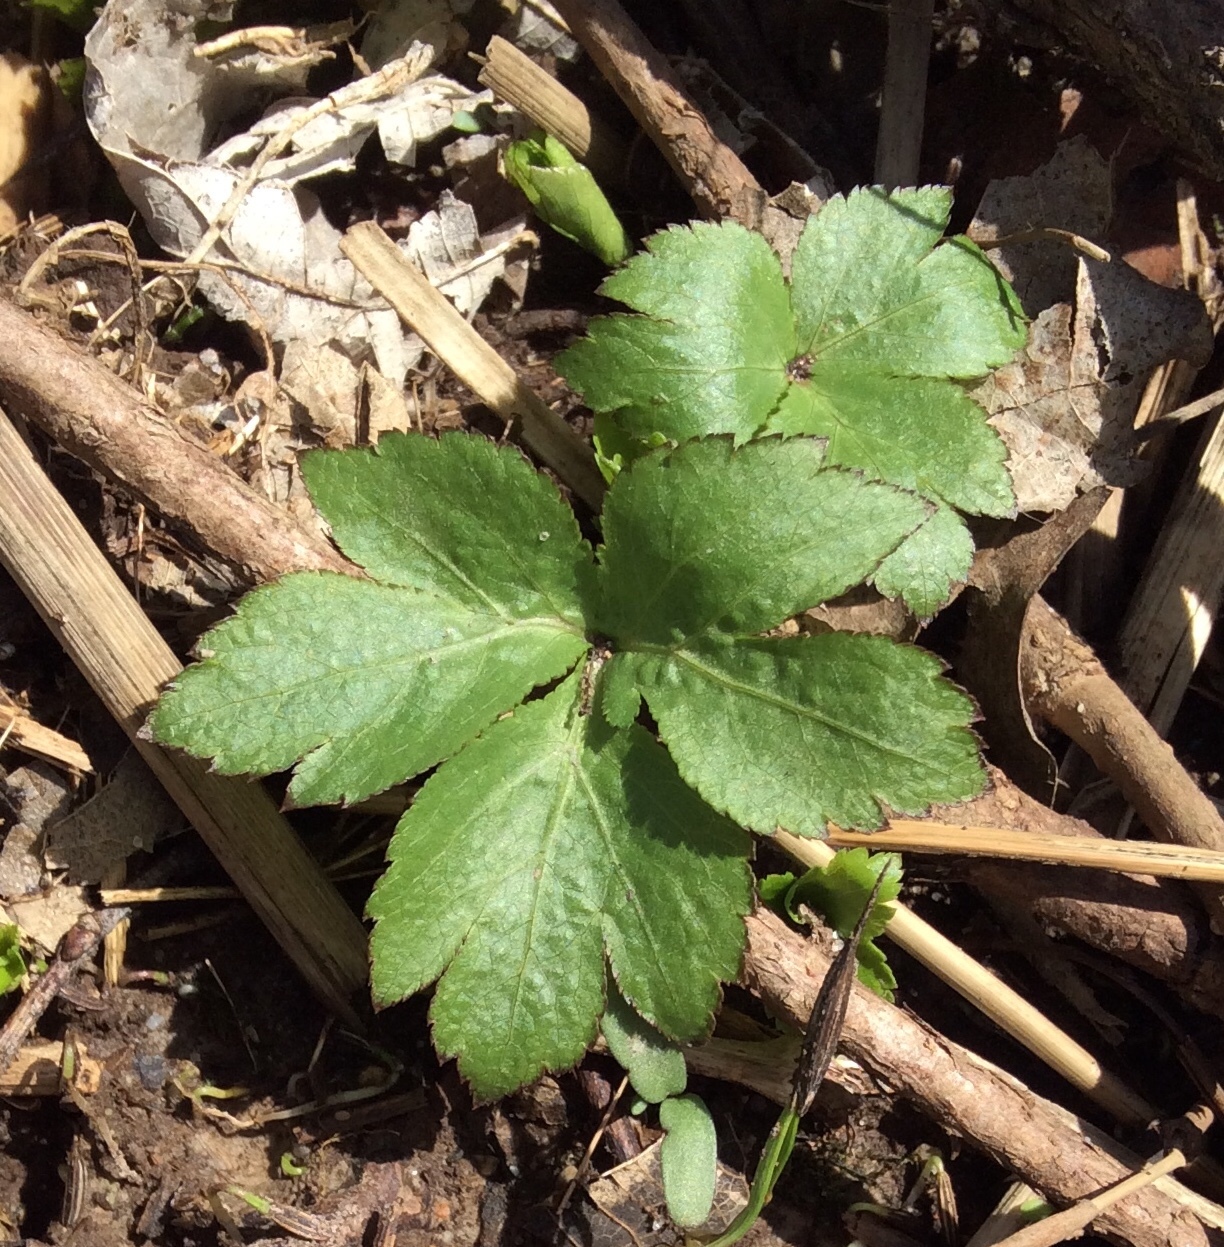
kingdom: Plantae
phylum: Tracheophyta
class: Magnoliopsida
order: Apiales
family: Apiaceae
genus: Cryptotaenia
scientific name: Cryptotaenia canadensis
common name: Honewort
